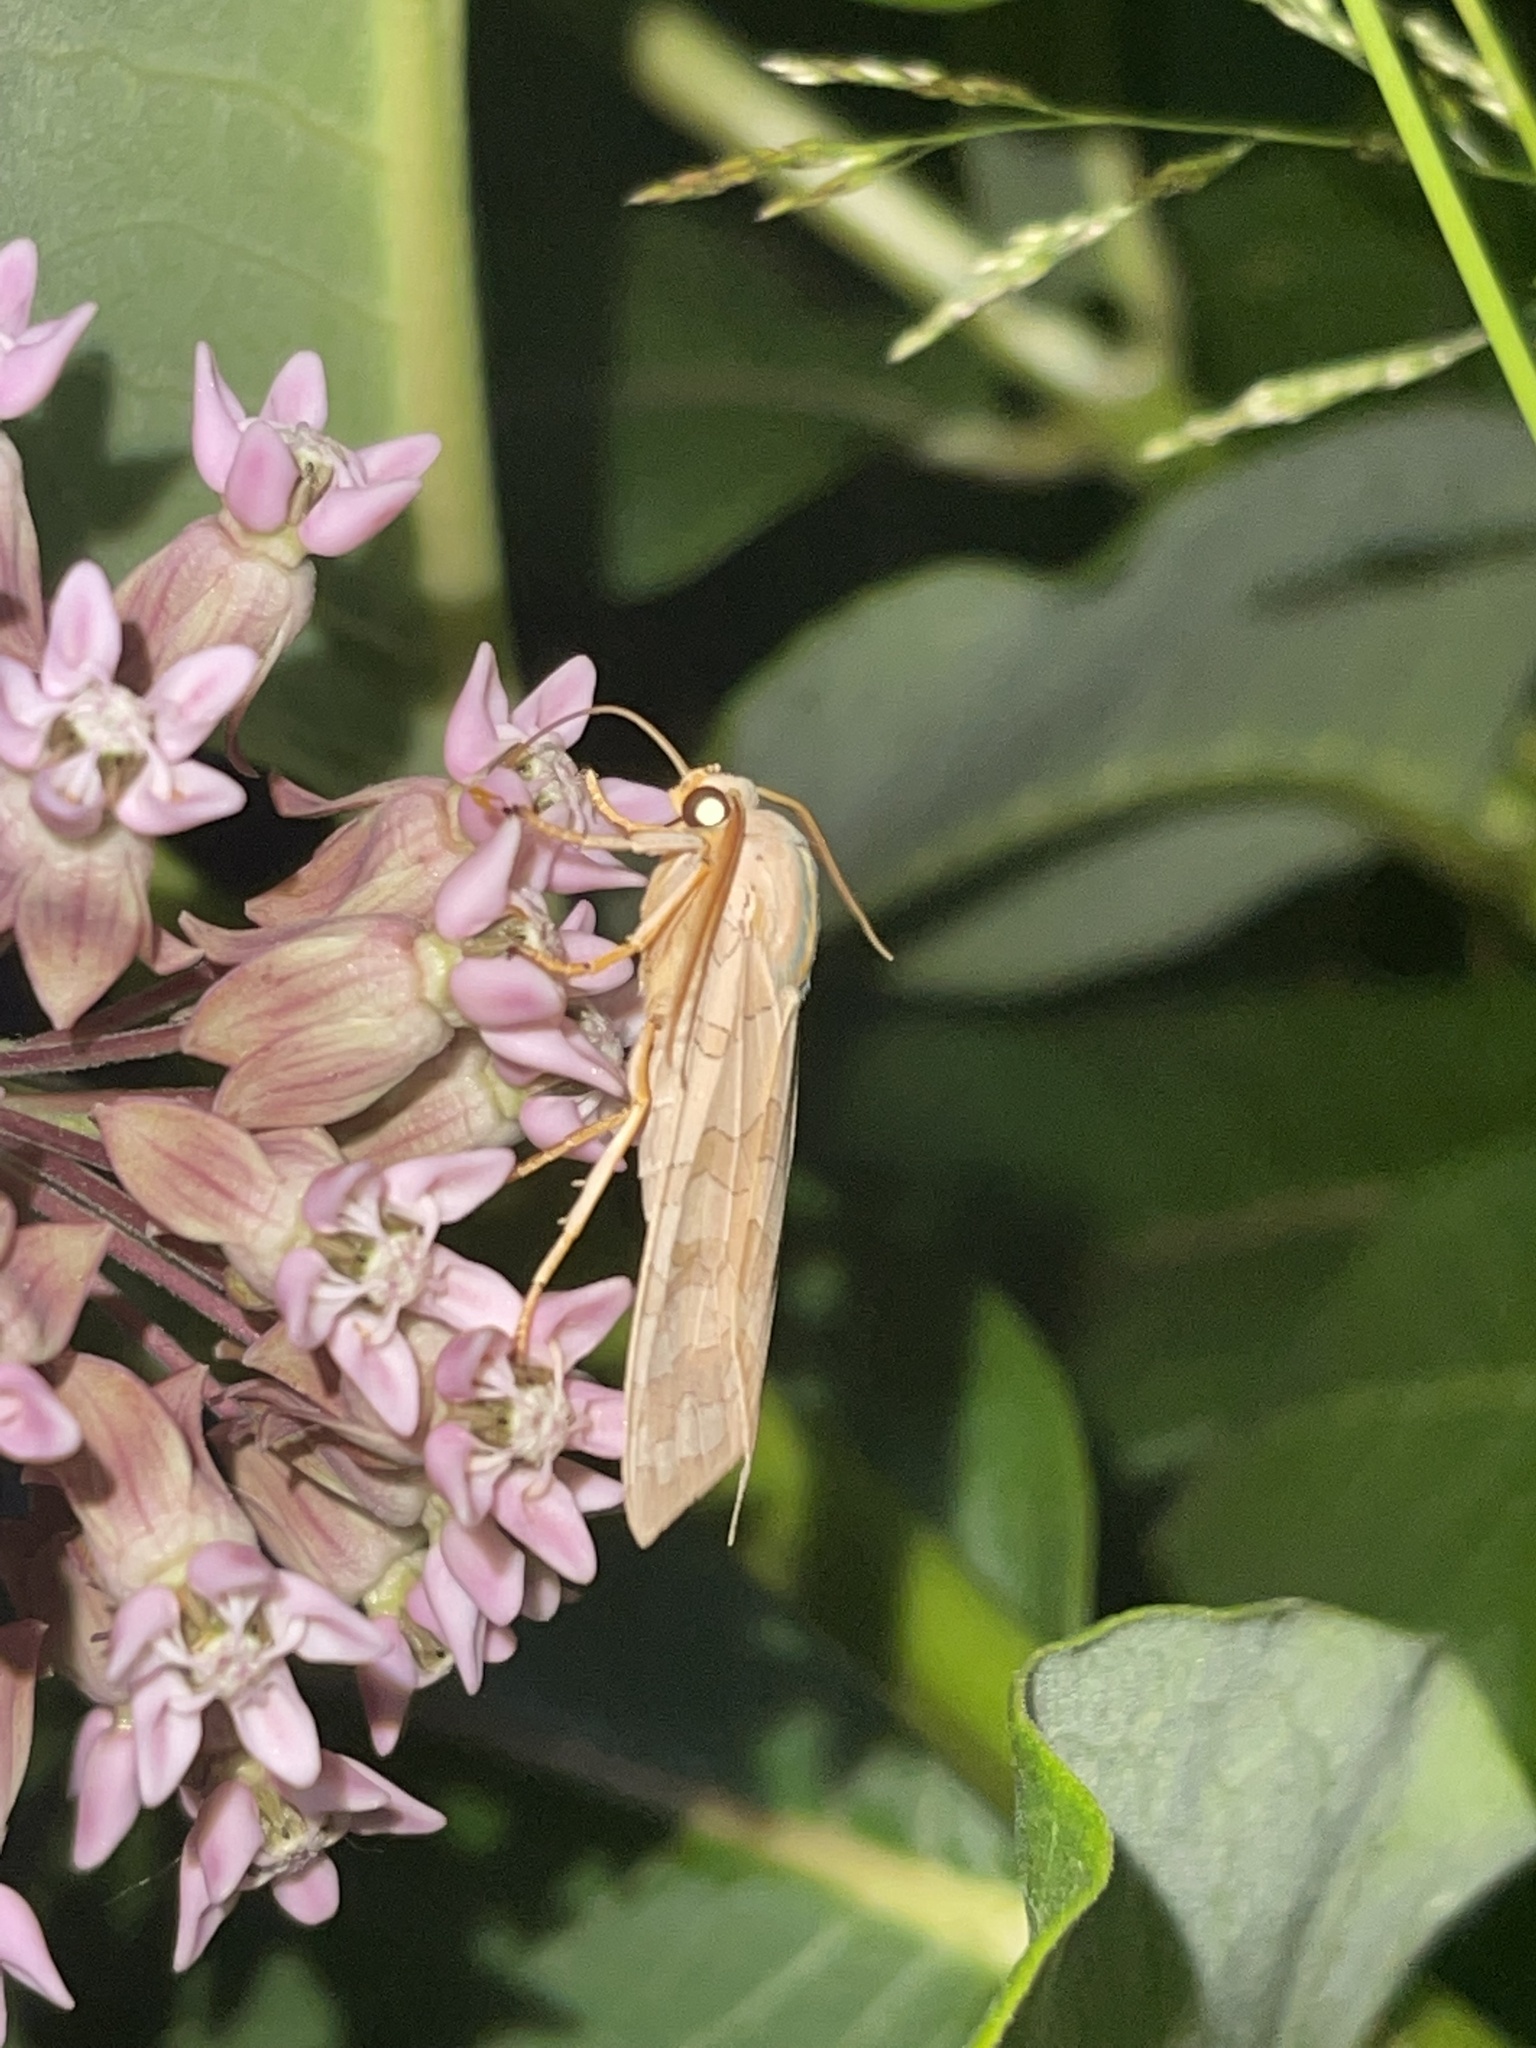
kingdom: Animalia
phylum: Arthropoda
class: Insecta
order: Lepidoptera
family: Erebidae
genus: Halysidota
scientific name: Halysidota
